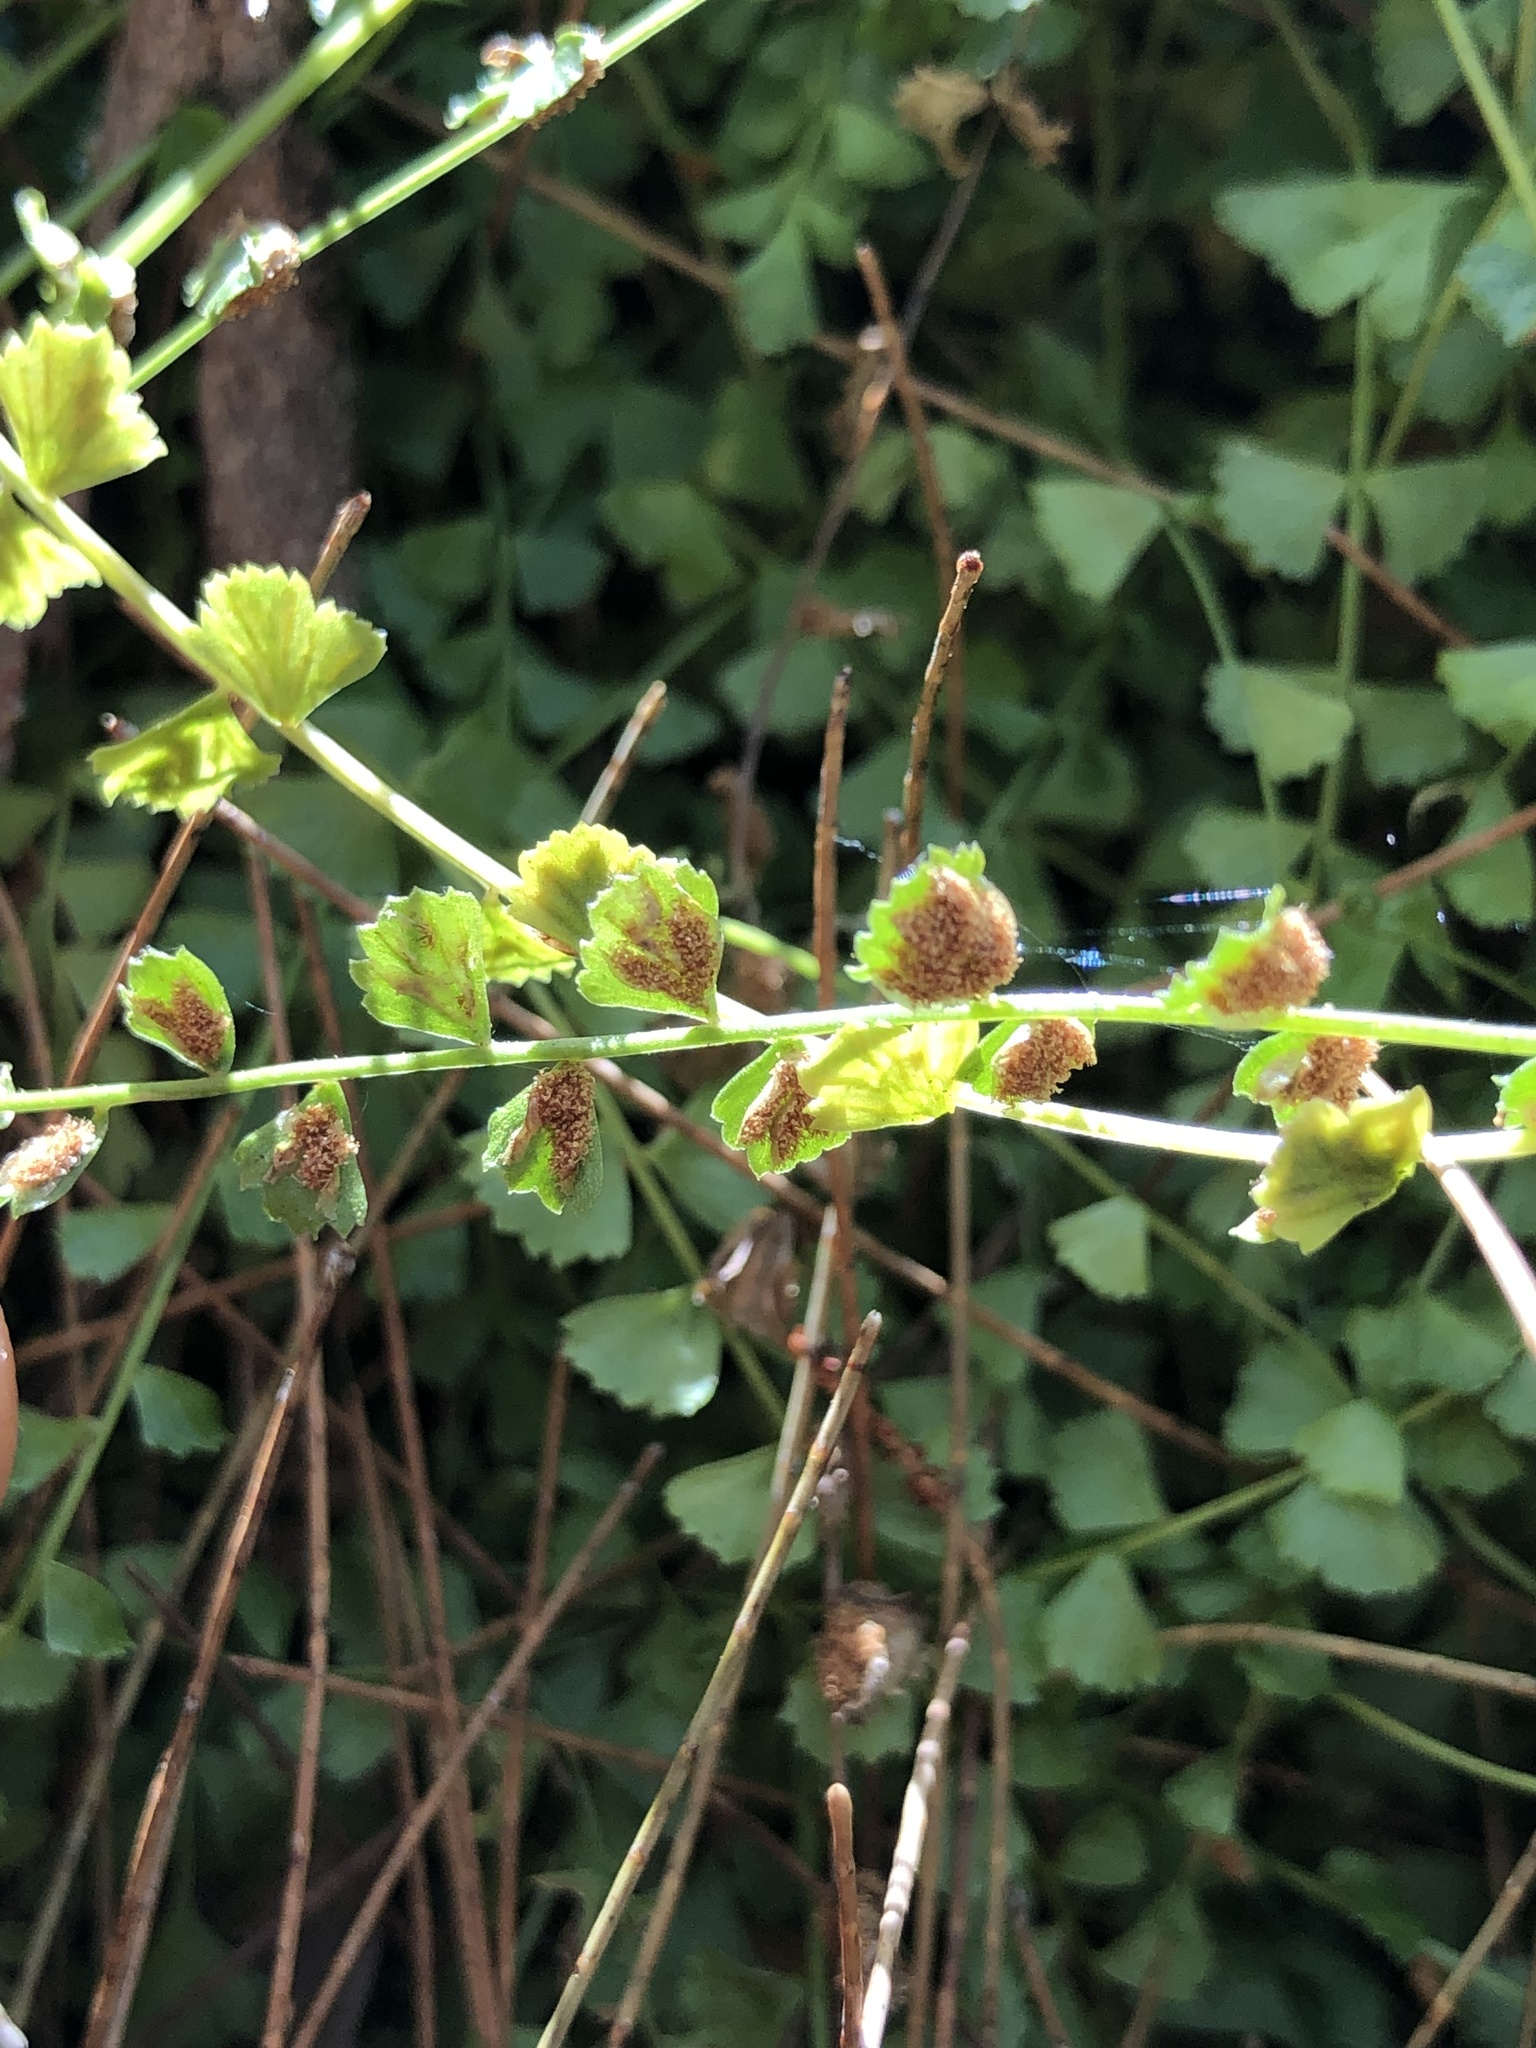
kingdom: Plantae
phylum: Tracheophyta
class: Polypodiopsida
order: Polypodiales
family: Aspleniaceae
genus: Asplenium
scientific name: Asplenium flabellifolium
